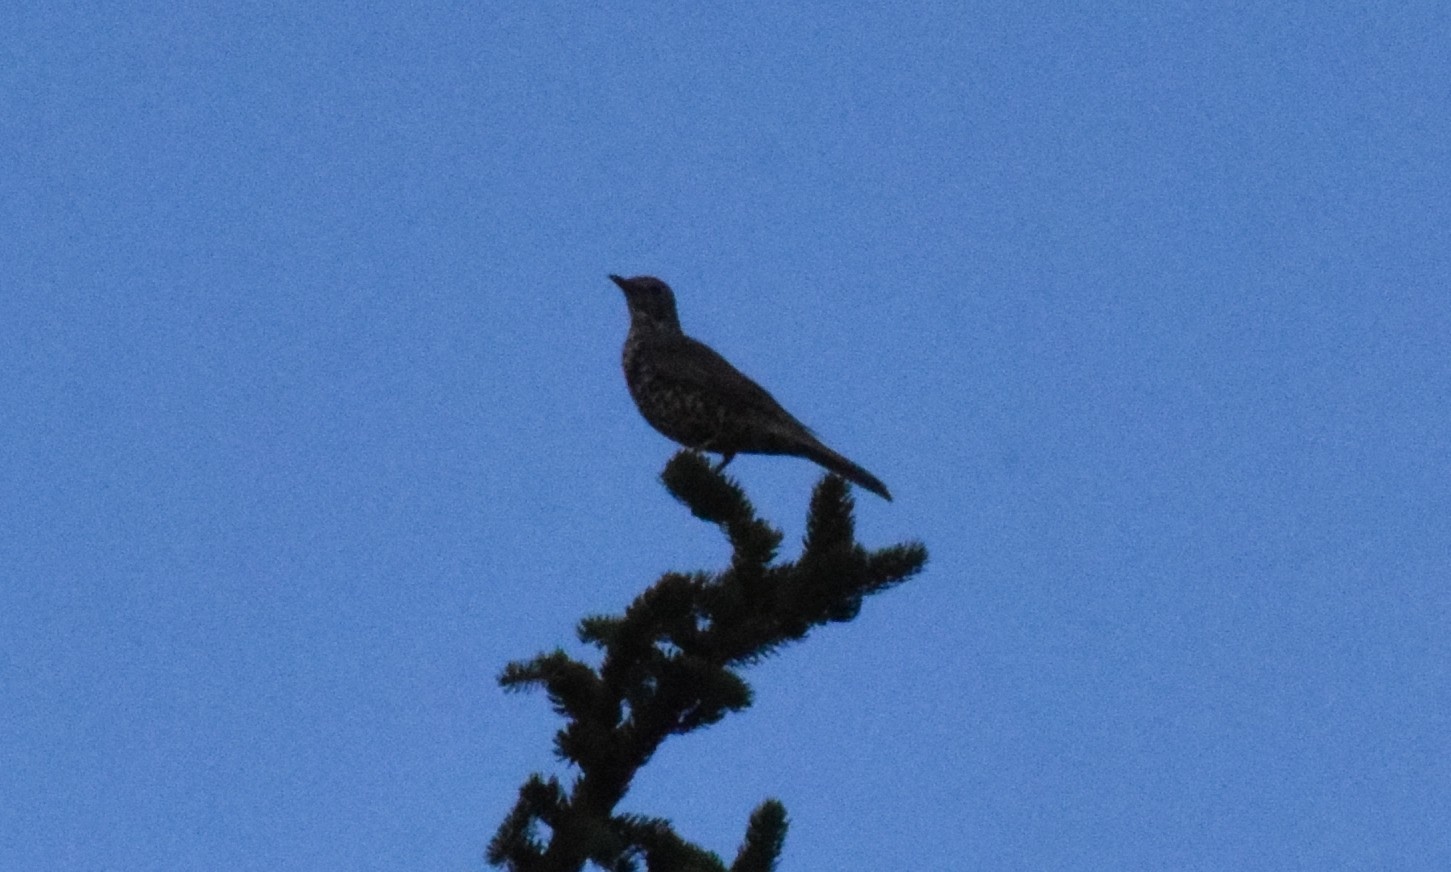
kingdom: Animalia
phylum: Chordata
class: Aves
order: Passeriformes
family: Turdidae
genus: Turdus
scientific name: Turdus viscivorus
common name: Mistle thrush
